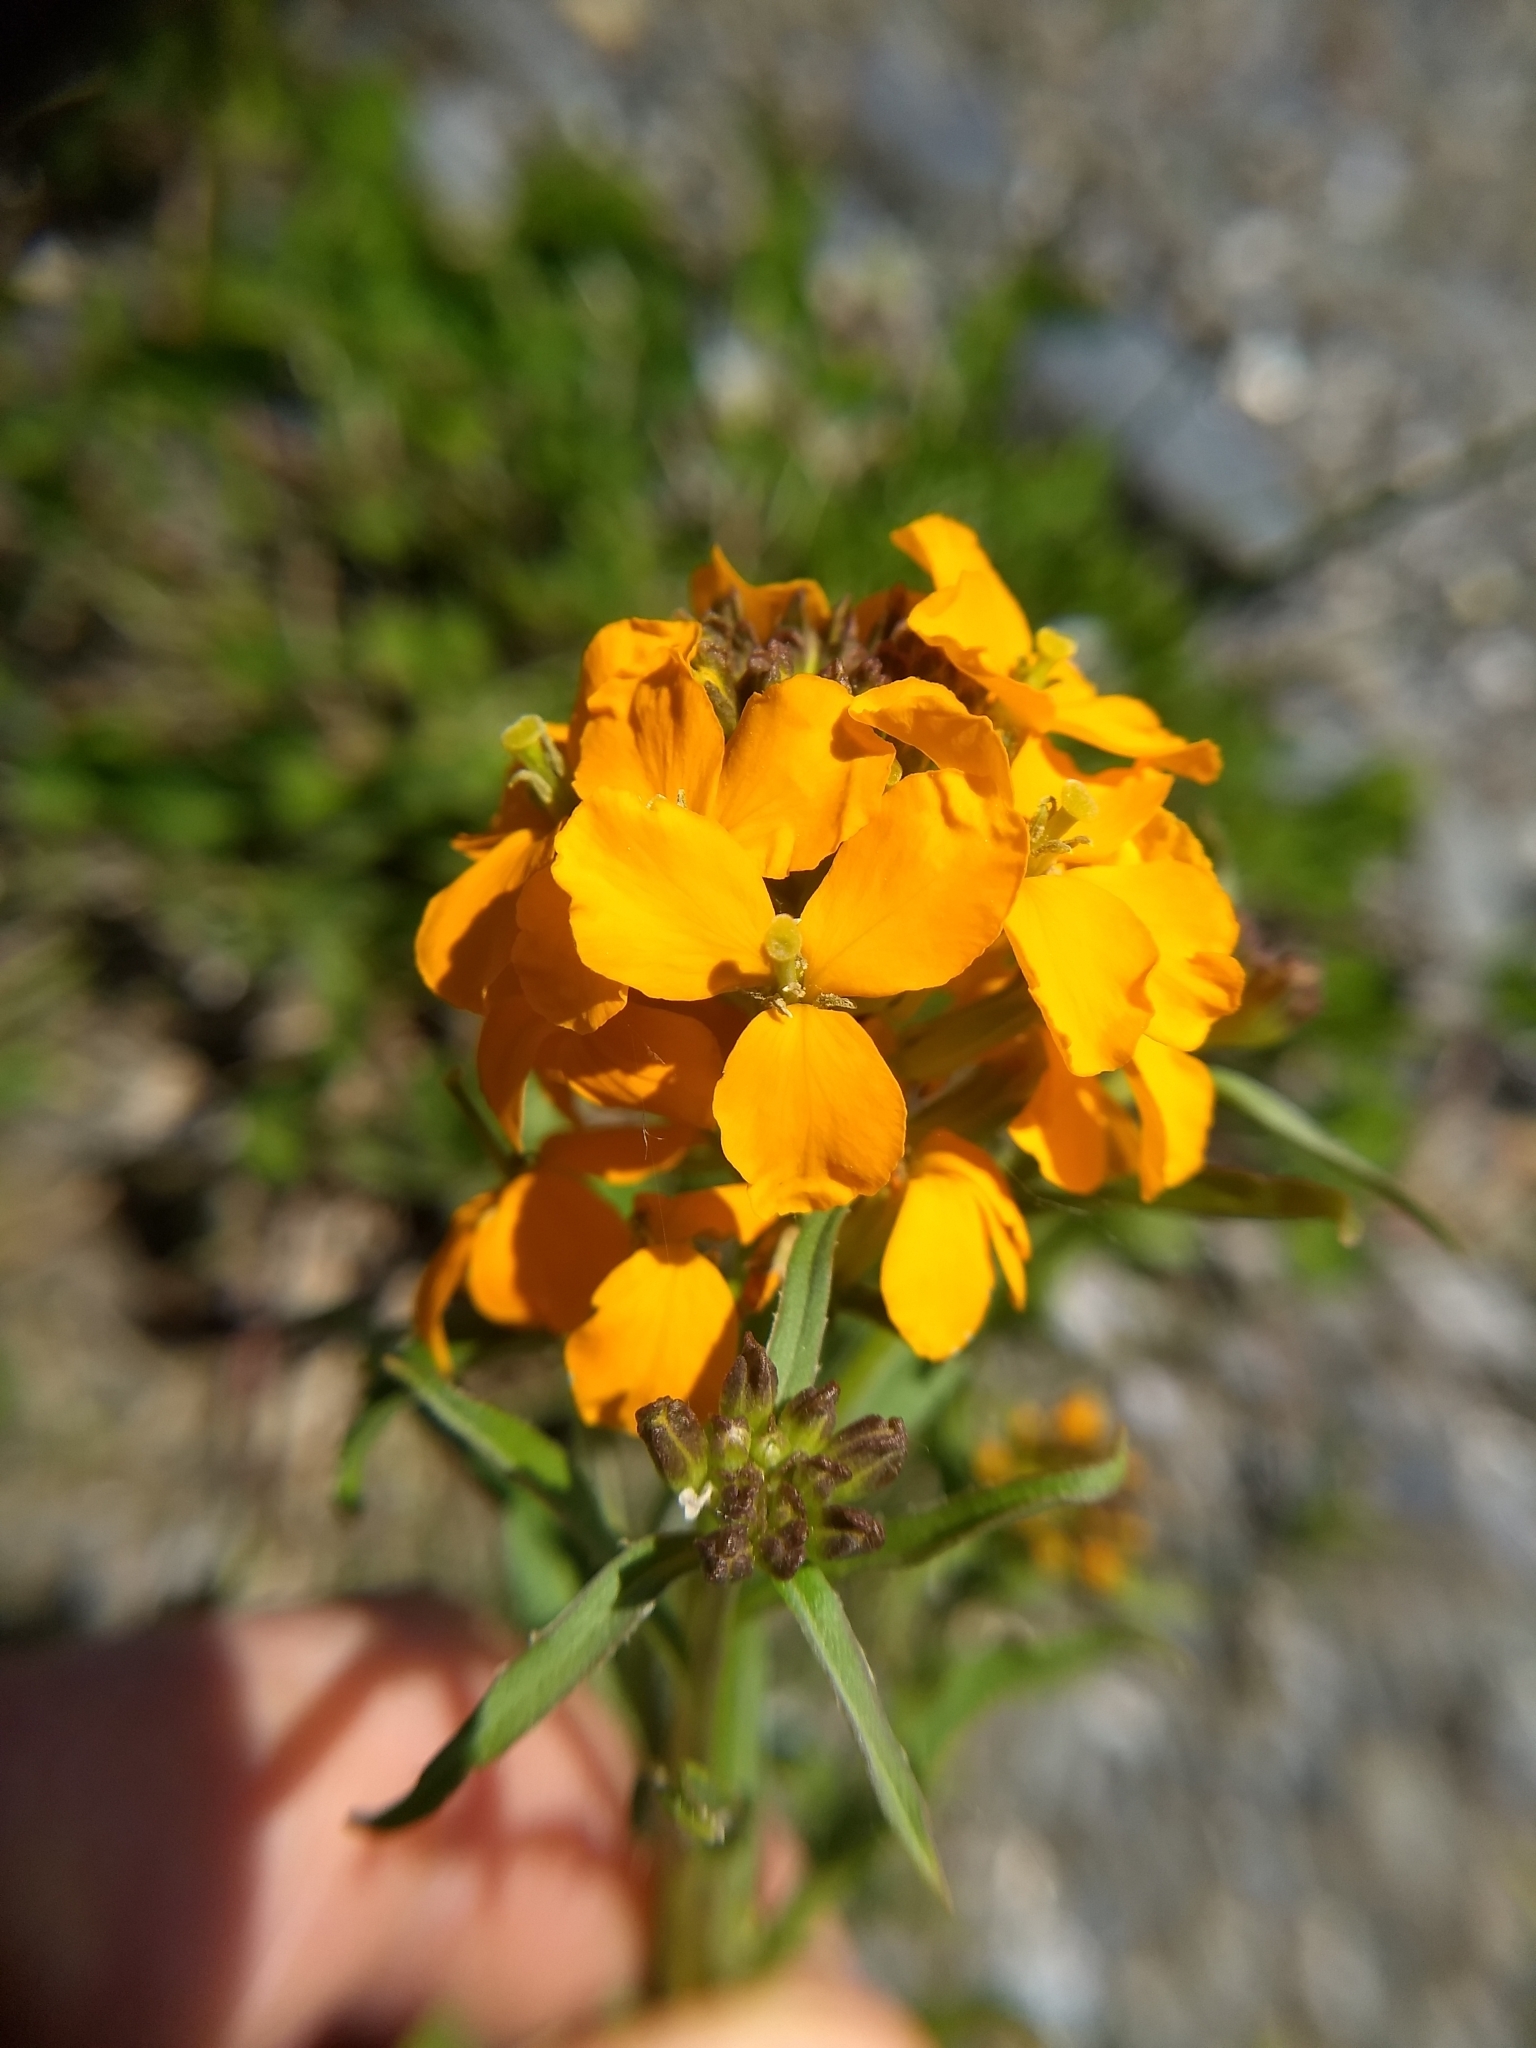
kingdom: Plantae
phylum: Tracheophyta
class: Magnoliopsida
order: Brassicales
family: Brassicaceae
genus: Erysimum
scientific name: Erysimum capitatum
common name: Western wallflower
